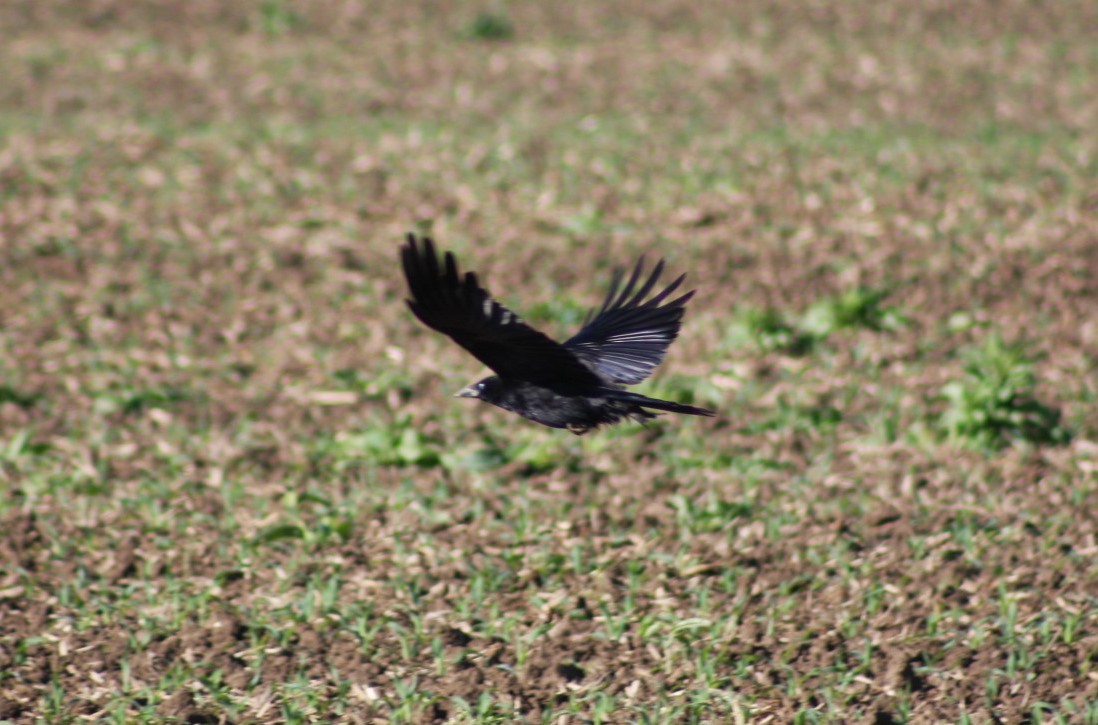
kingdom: Animalia
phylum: Chordata
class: Aves
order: Passeriformes
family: Corvidae
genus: Corvus
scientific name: Corvus corone
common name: Carrion crow
